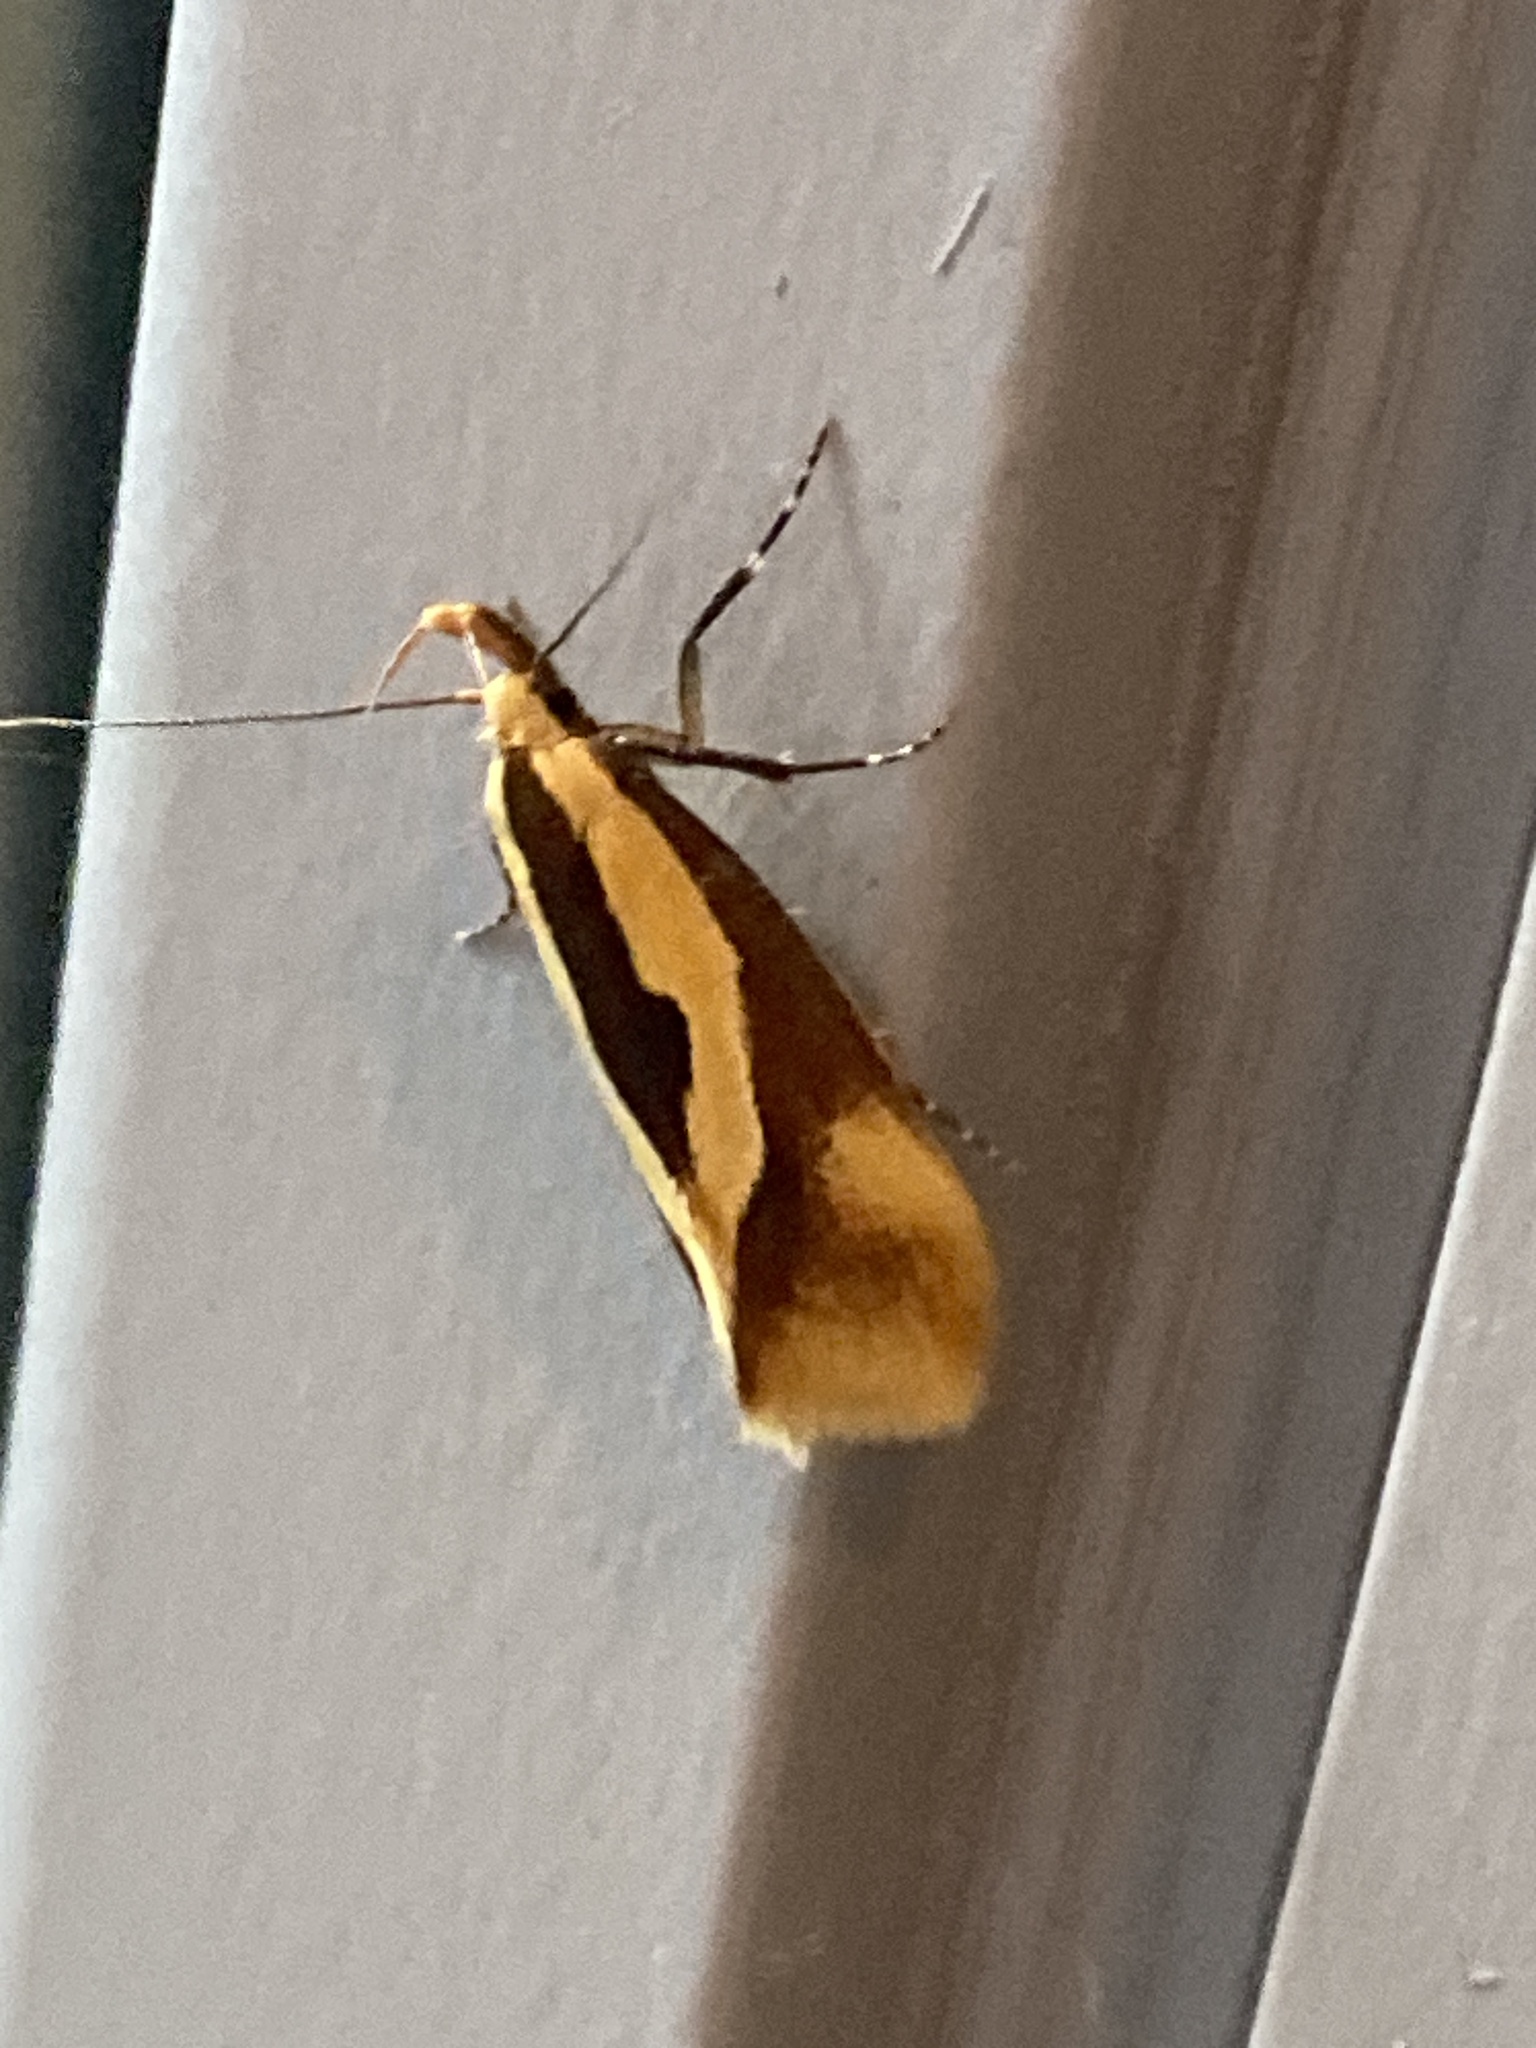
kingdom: Animalia
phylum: Arthropoda
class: Insecta
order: Lepidoptera
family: Oecophoridae
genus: Harpella
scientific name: Harpella forficella
